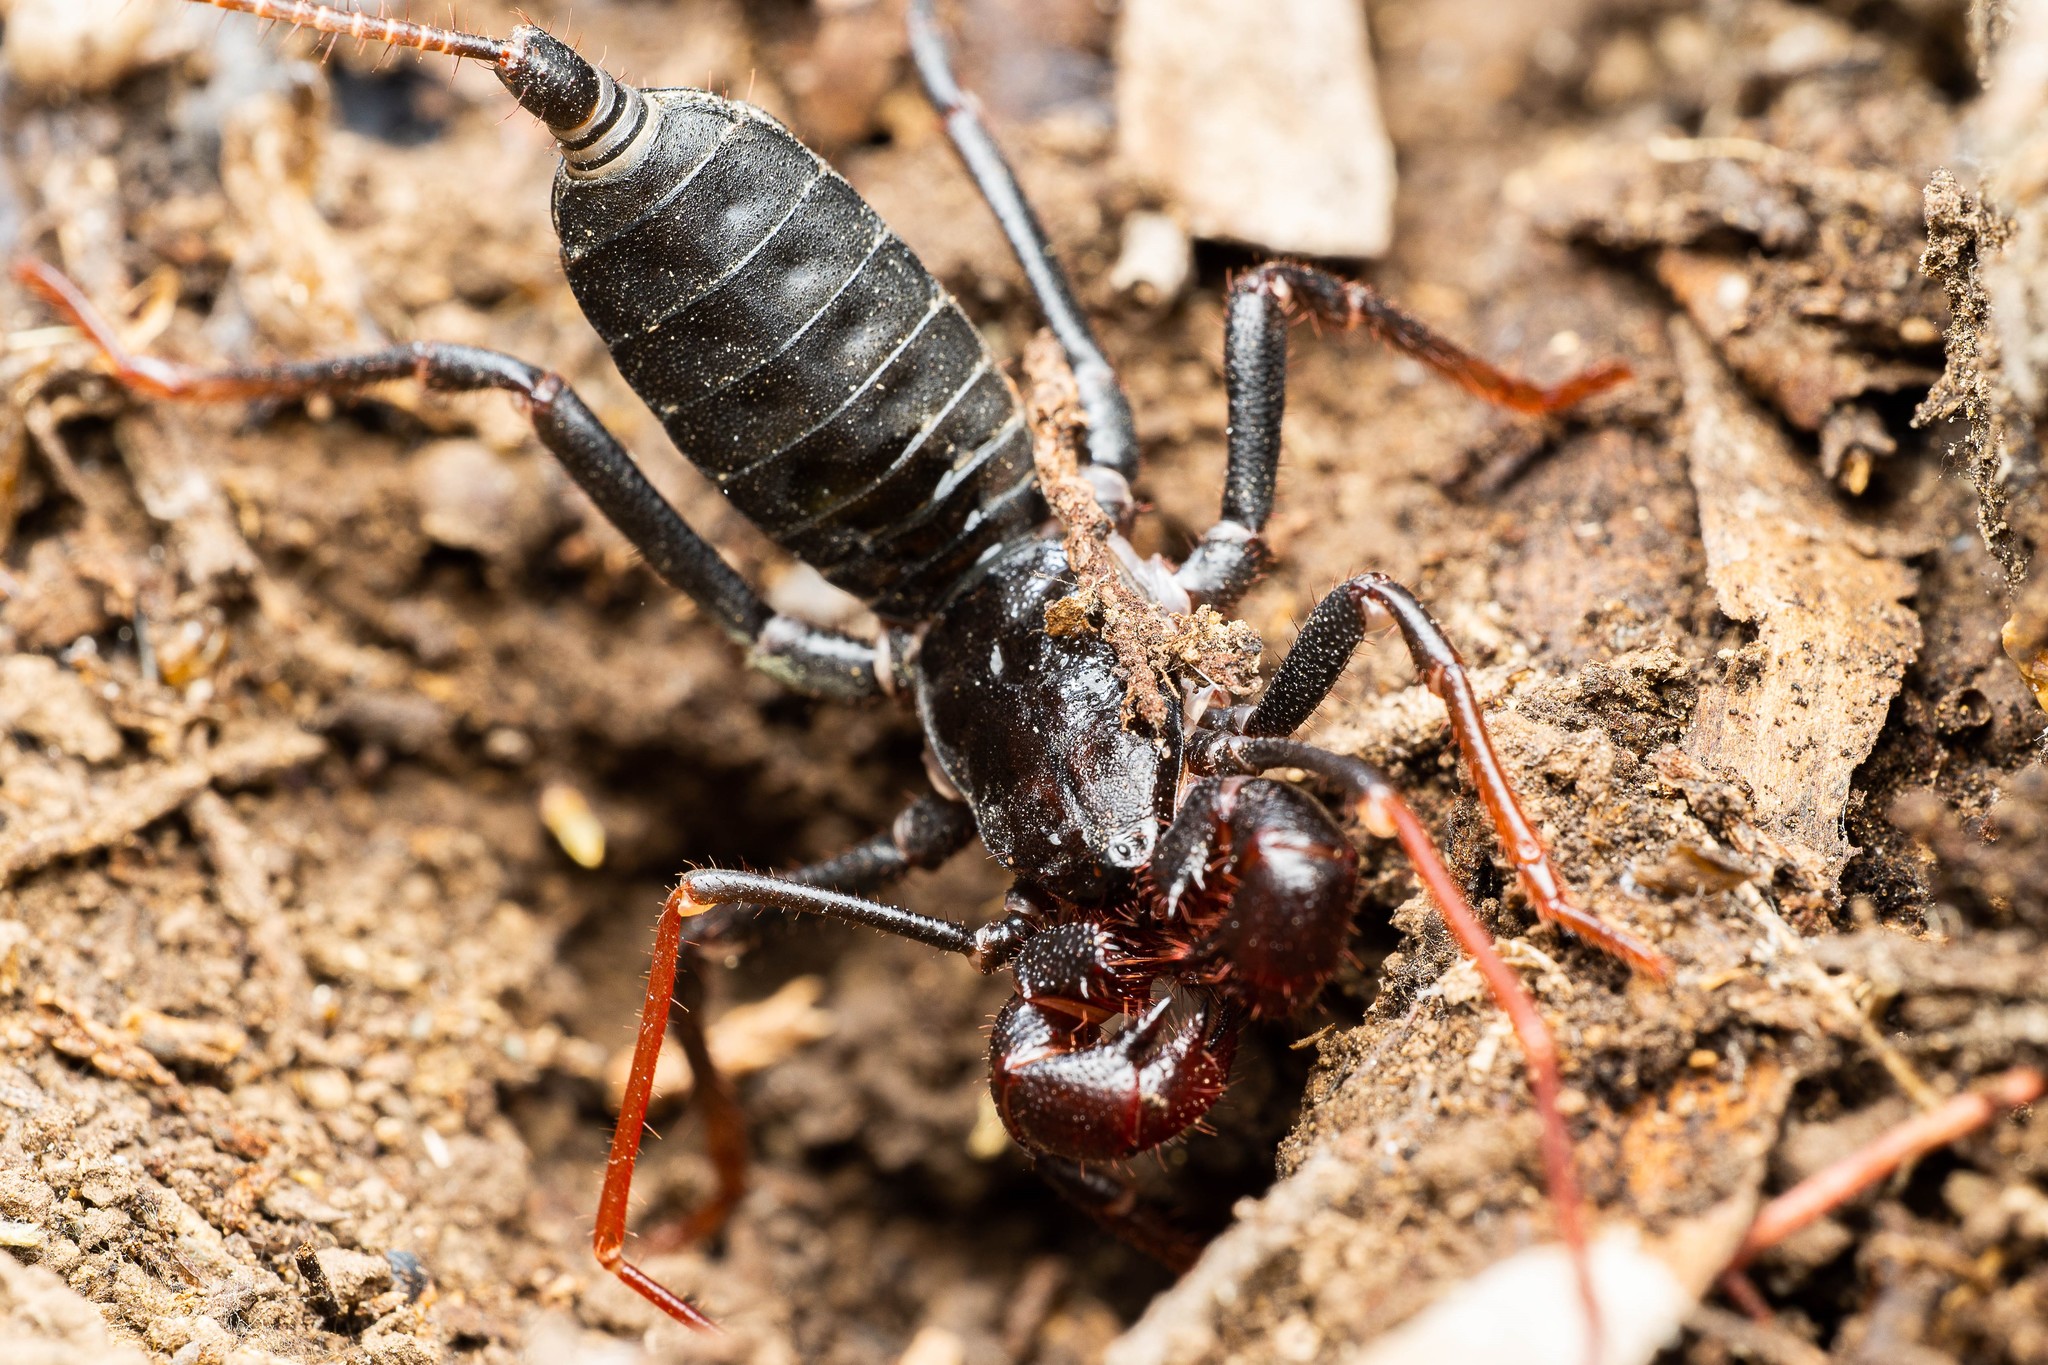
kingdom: Animalia
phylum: Arthropoda
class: Arachnida
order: Uropygi
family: Thelyphonidae
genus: Mastigoproctus
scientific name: Mastigoproctus tohono
